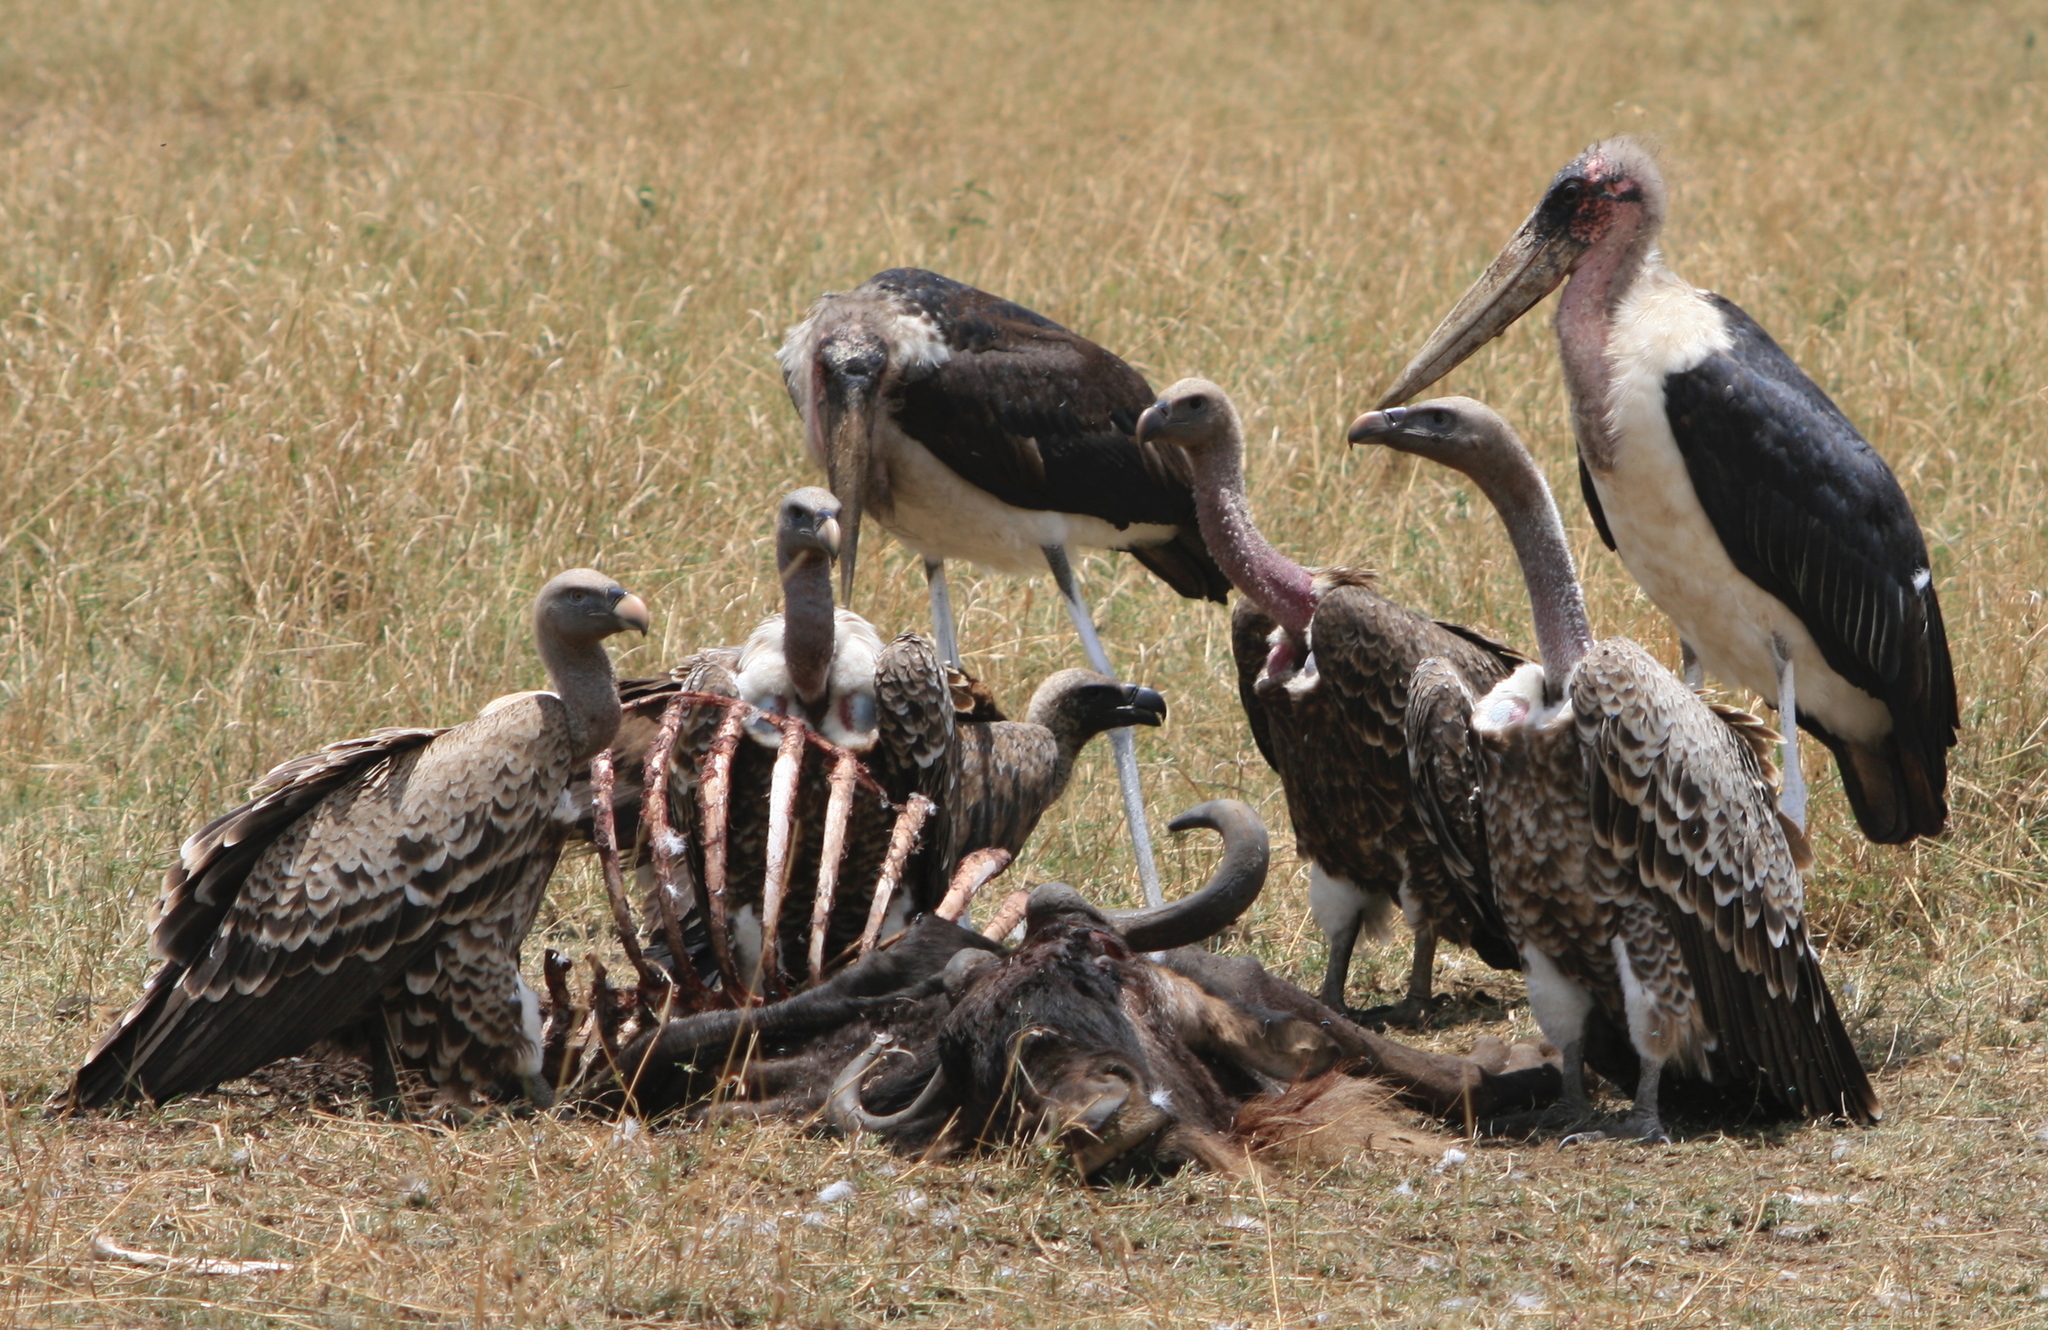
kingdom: Animalia
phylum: Chordata
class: Aves
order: Accipitriformes
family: Accipitridae
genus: Gyps
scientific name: Gyps rueppellii
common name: Rüppell's vulture
